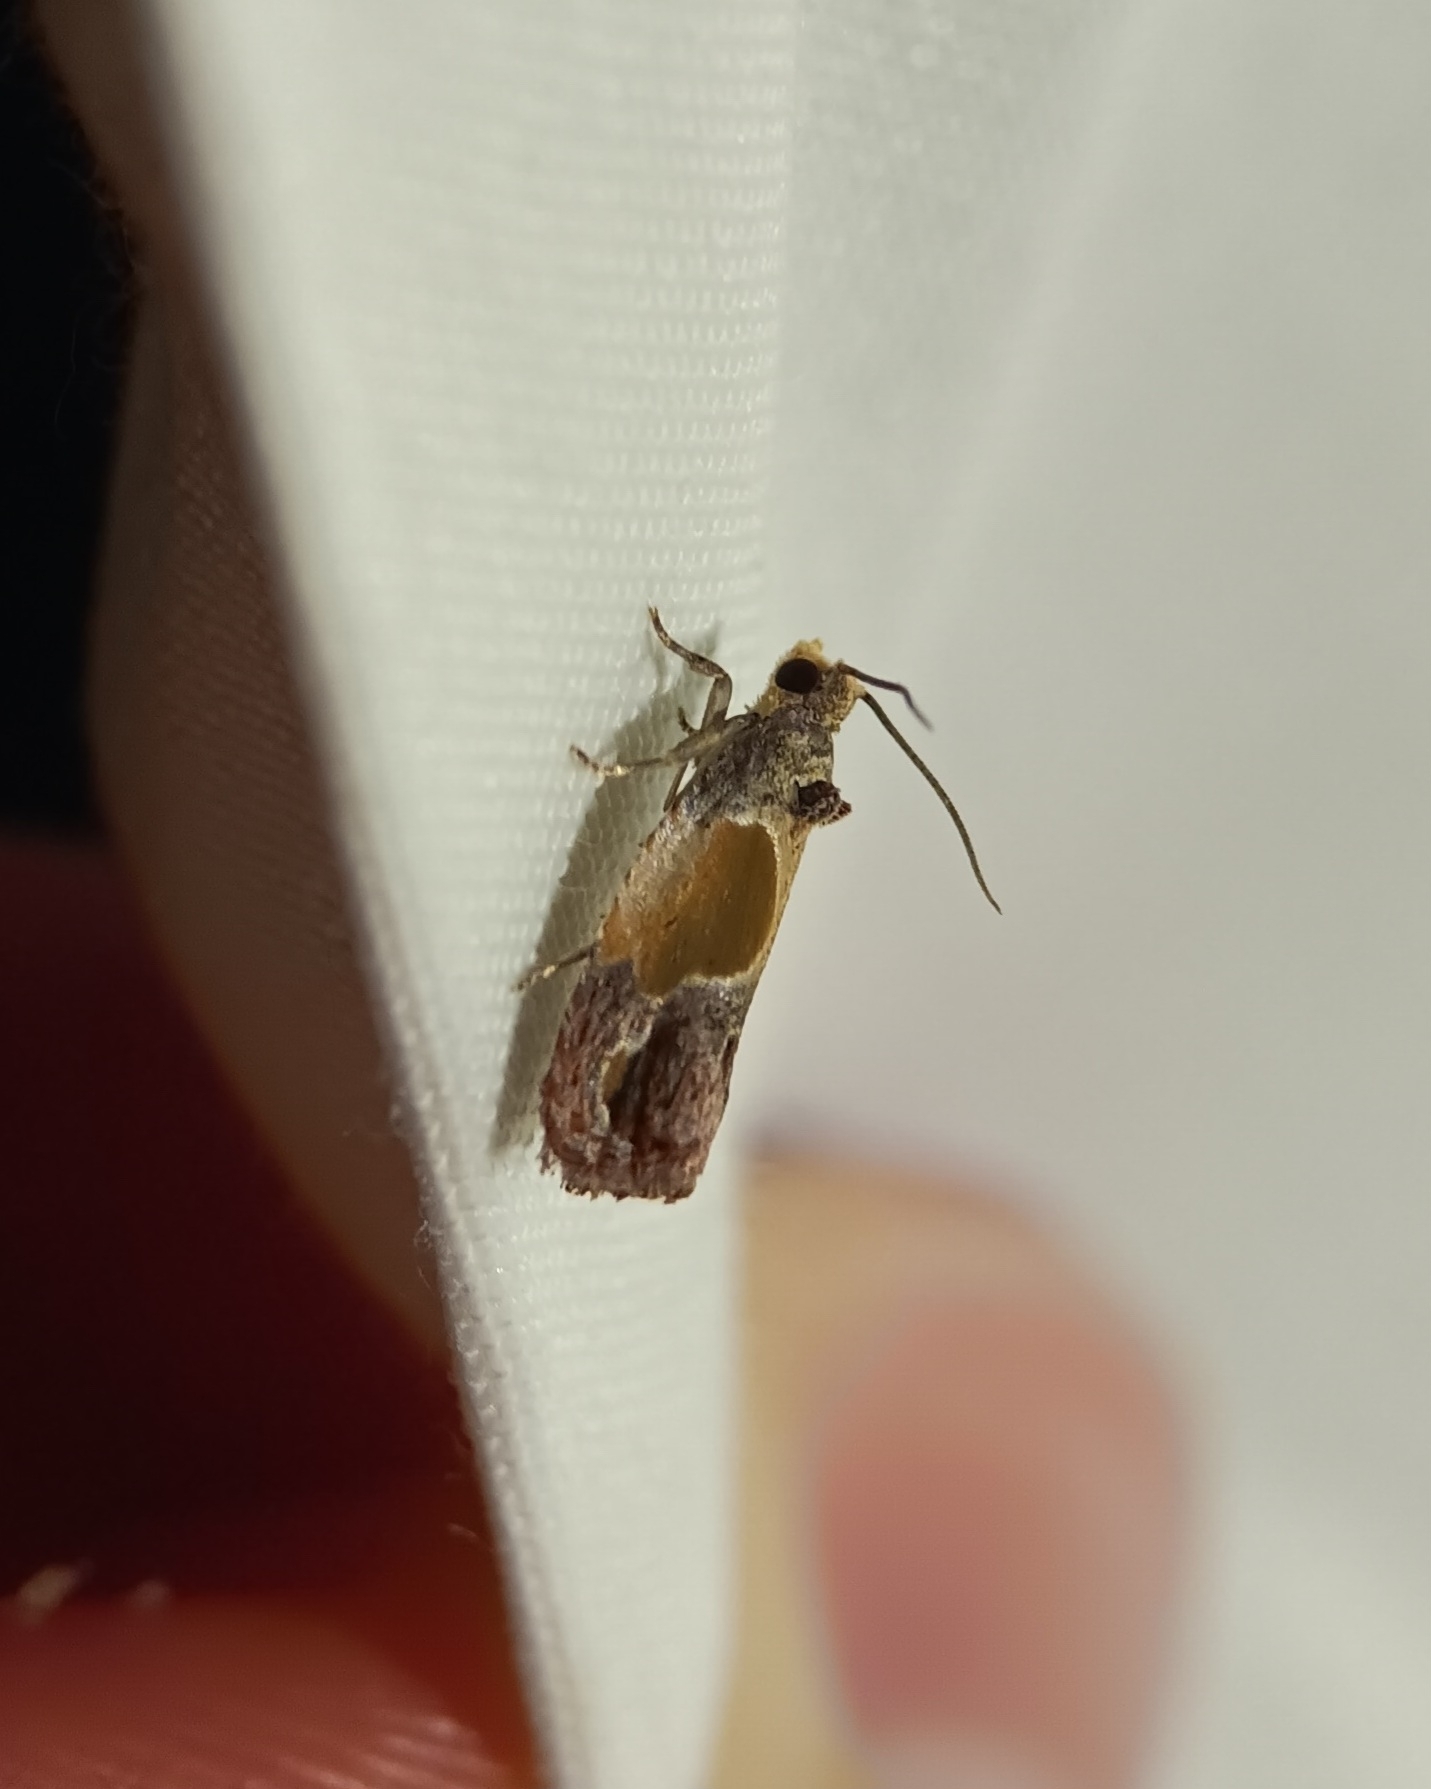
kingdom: Animalia
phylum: Arthropoda
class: Insecta
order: Lepidoptera
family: Tortricidae
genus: Eumarozia
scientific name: Eumarozia malachitana
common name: Sculptured moth
